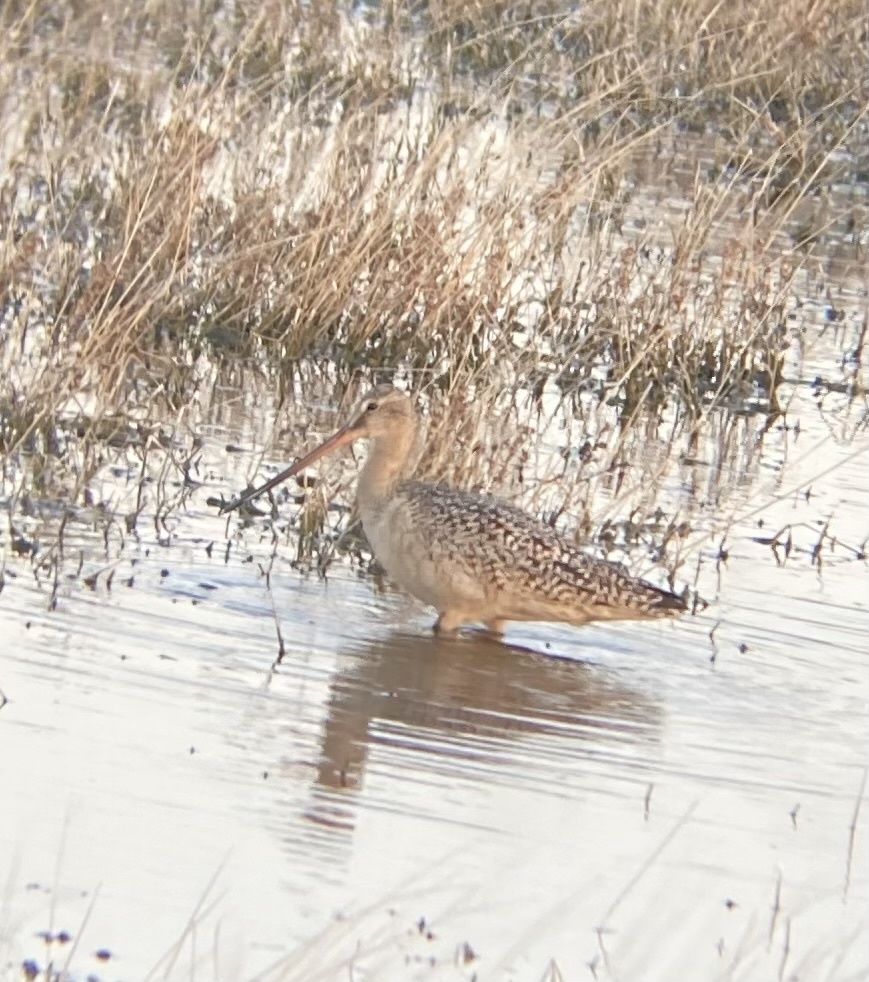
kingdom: Animalia
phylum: Chordata
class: Aves
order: Charadriiformes
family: Scolopacidae
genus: Limosa
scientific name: Limosa fedoa
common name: Marbled godwit
